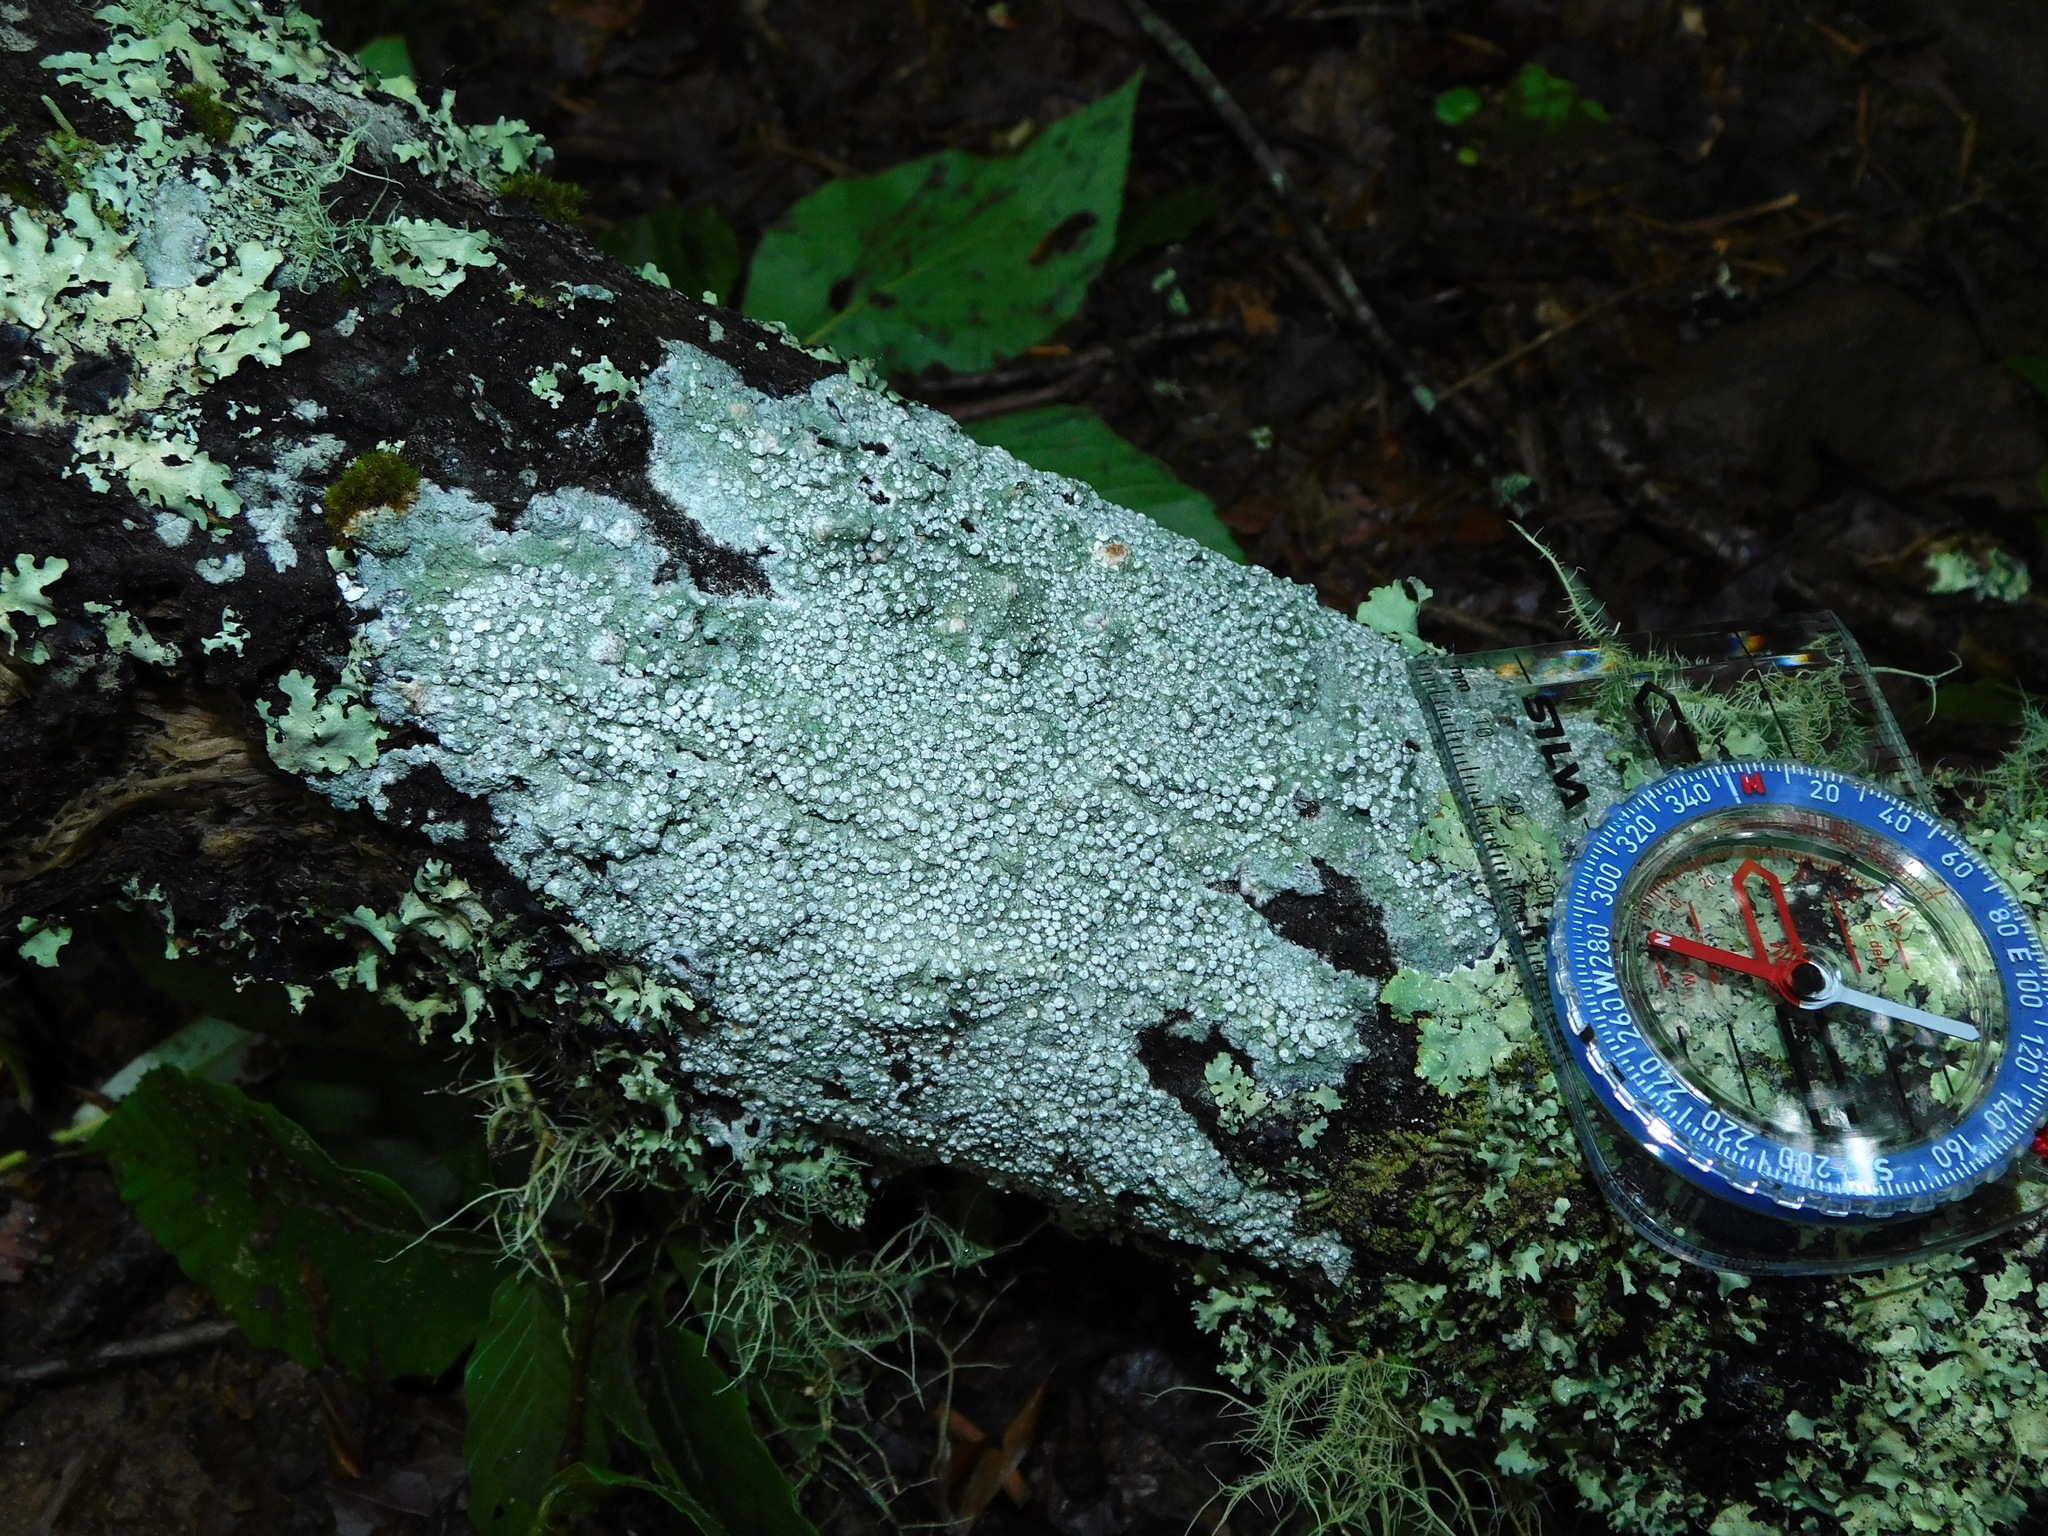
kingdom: Fungi
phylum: Ascomycota
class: Lecanoromycetes
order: Pertusariales
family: Pertusariaceae
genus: Lepra
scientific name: Lepra trachythallina
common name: Powdered wart lichen
